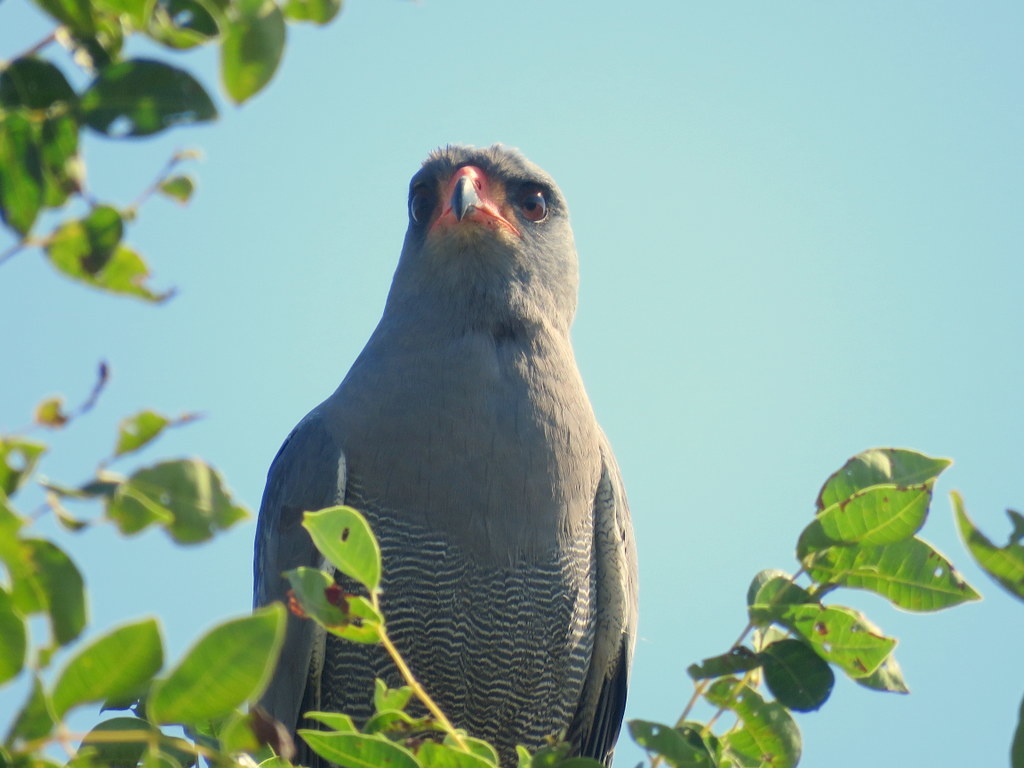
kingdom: Animalia
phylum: Chordata
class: Aves
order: Accipitriformes
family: Accipitridae
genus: Melierax
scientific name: Melierax metabates
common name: Dark chanting-goshawk
